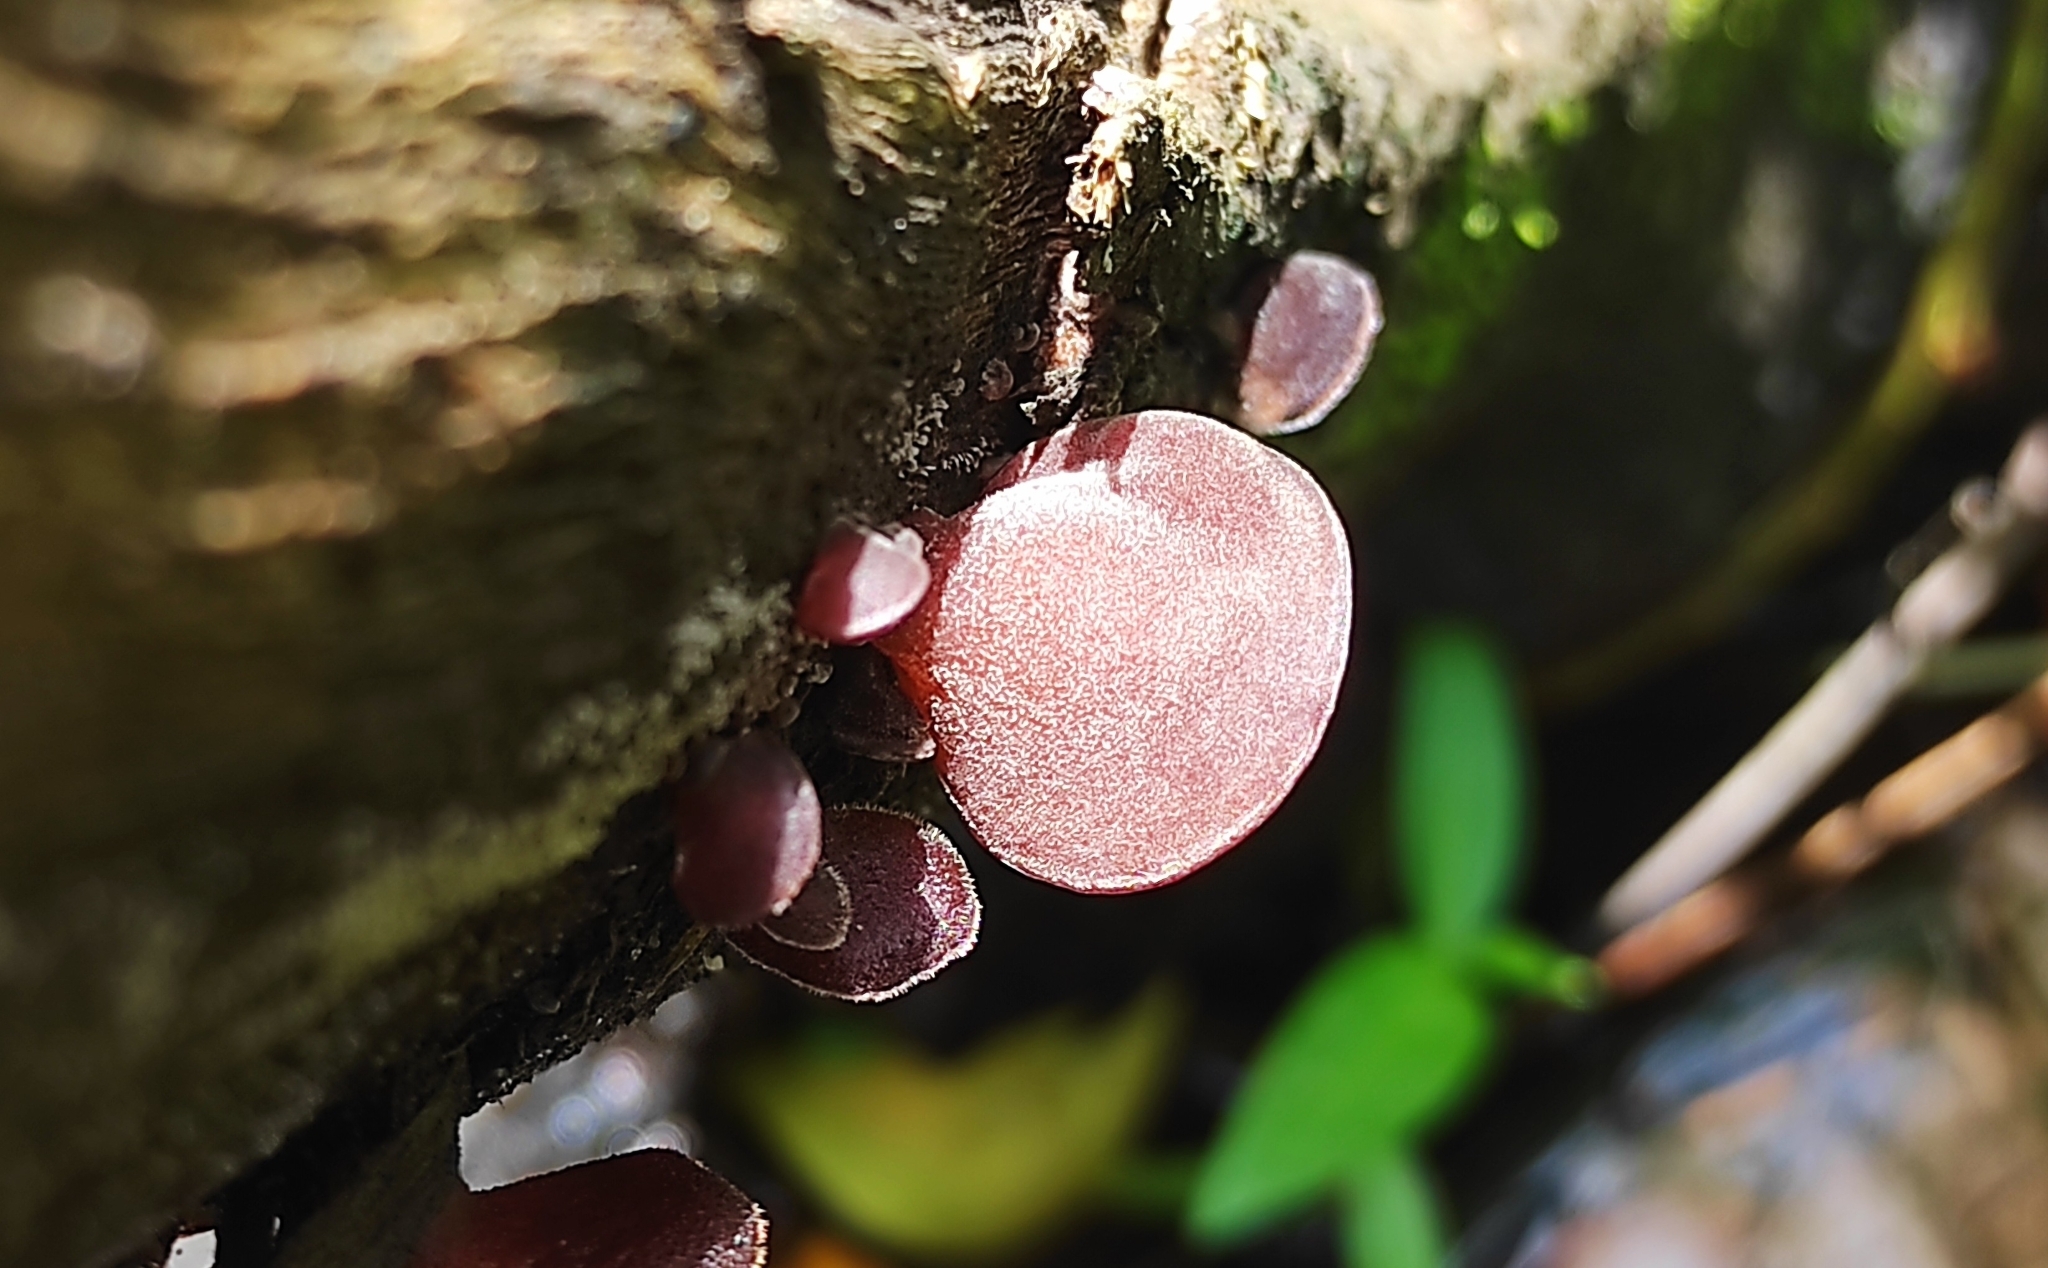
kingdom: Fungi
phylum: Basidiomycota
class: Agaricomycetes
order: Auriculariales
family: Auriculariaceae
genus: Auricularia
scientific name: Auricularia nigricans
